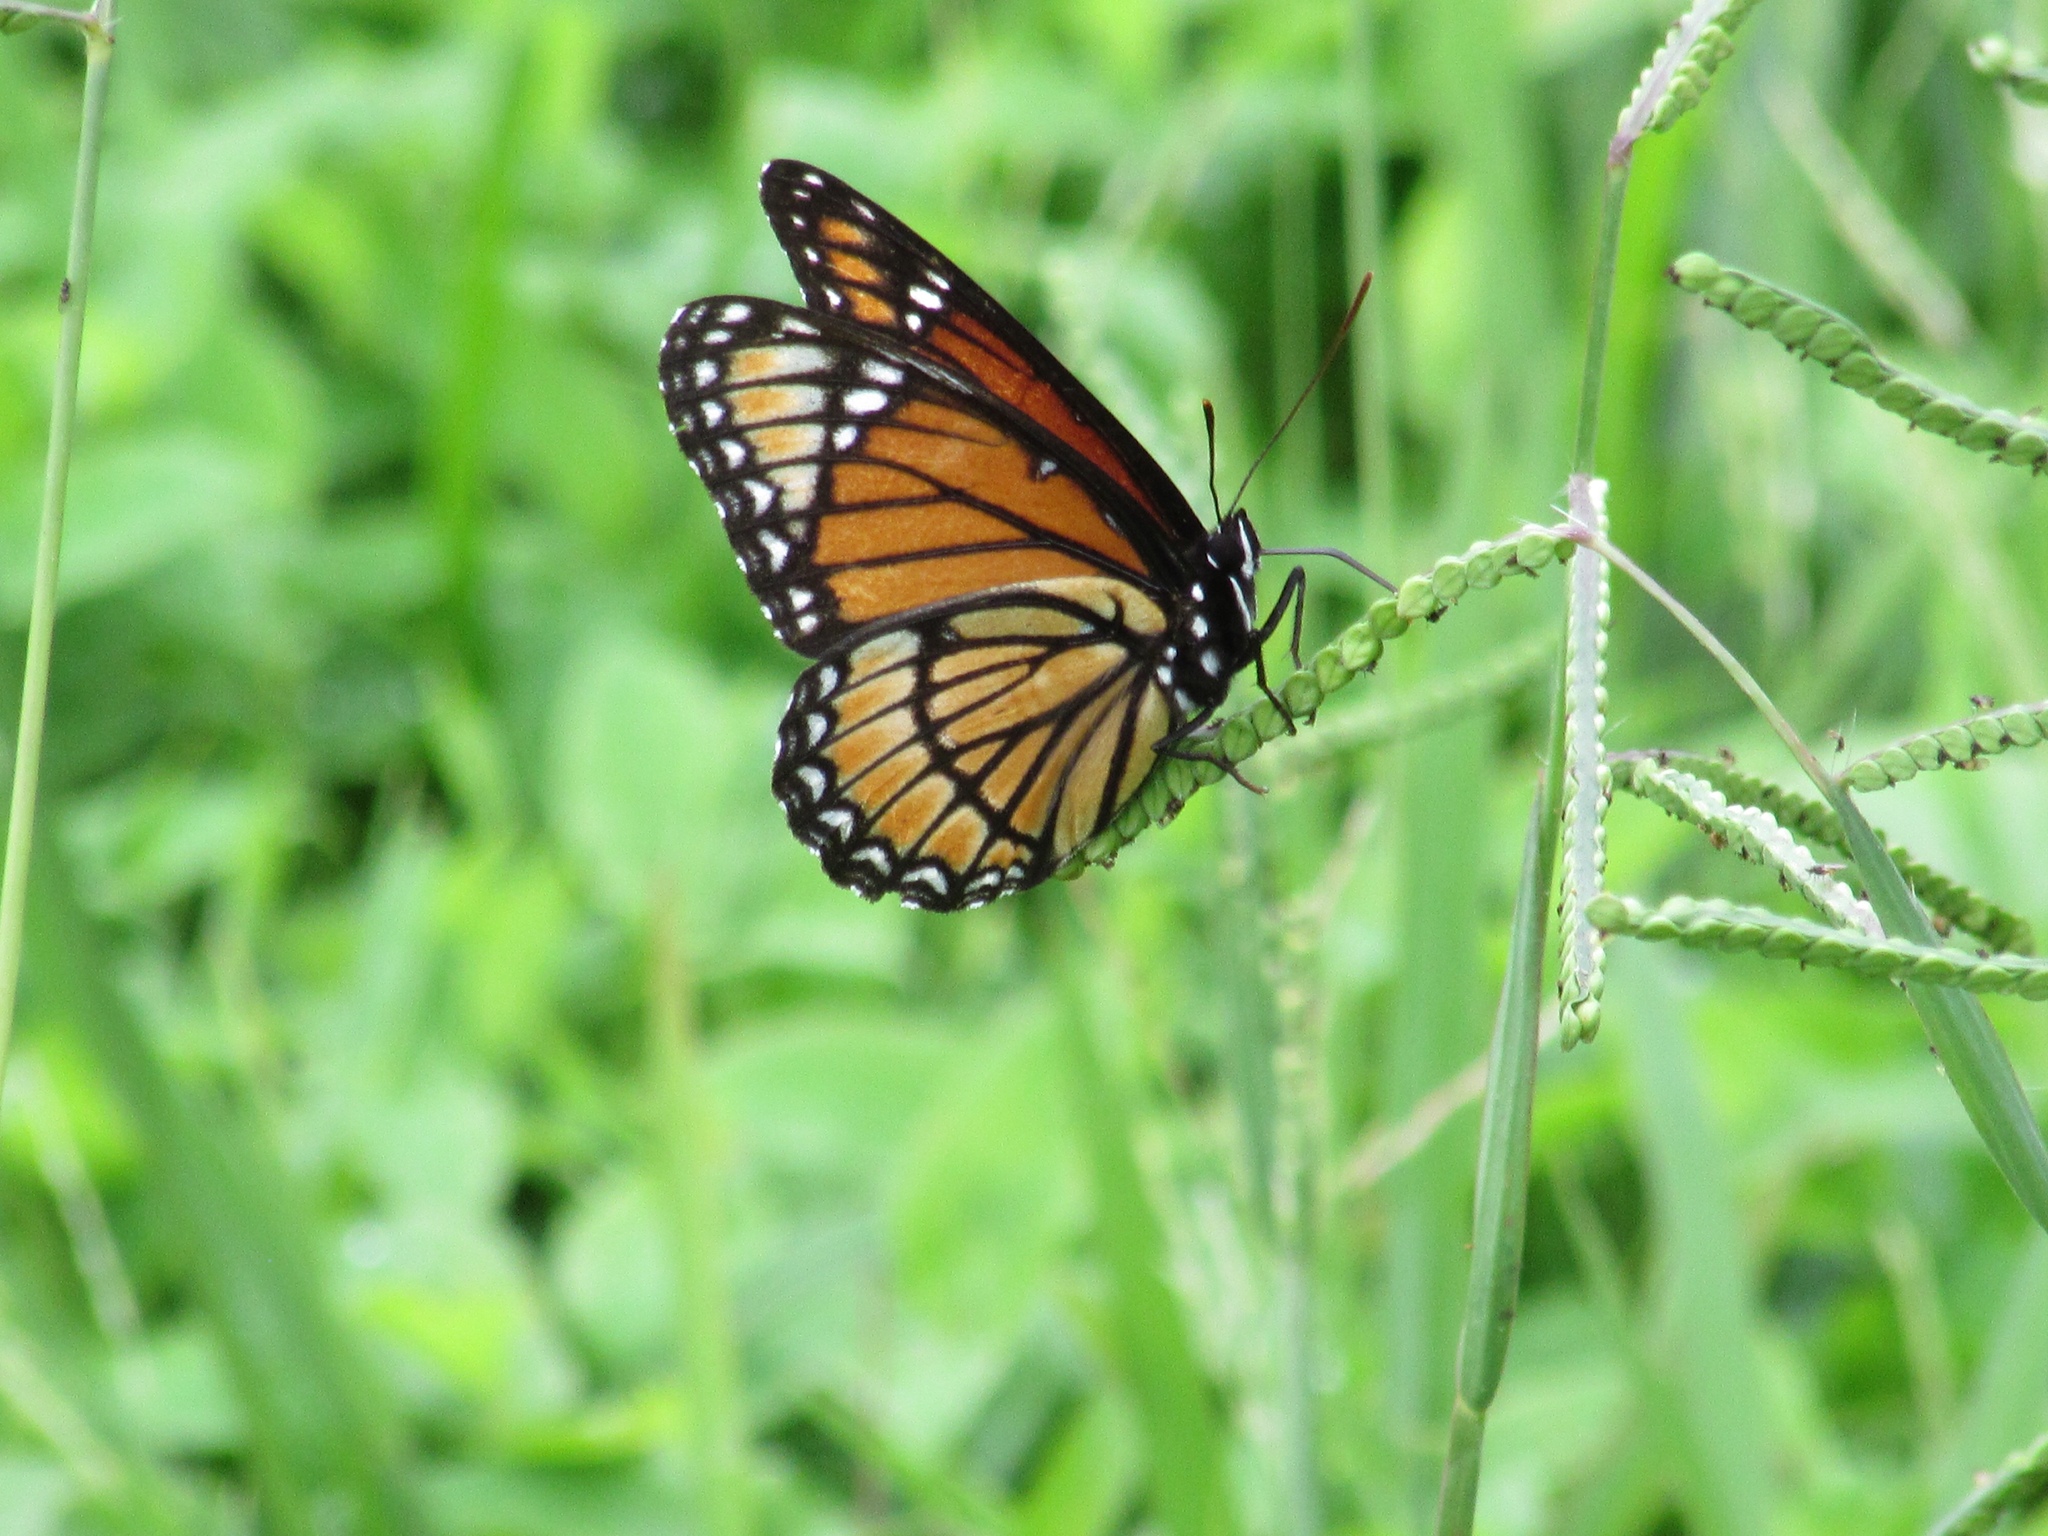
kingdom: Animalia
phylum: Arthropoda
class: Insecta
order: Lepidoptera
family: Nymphalidae
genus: Limenitis
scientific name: Limenitis archippus
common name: Viceroy
